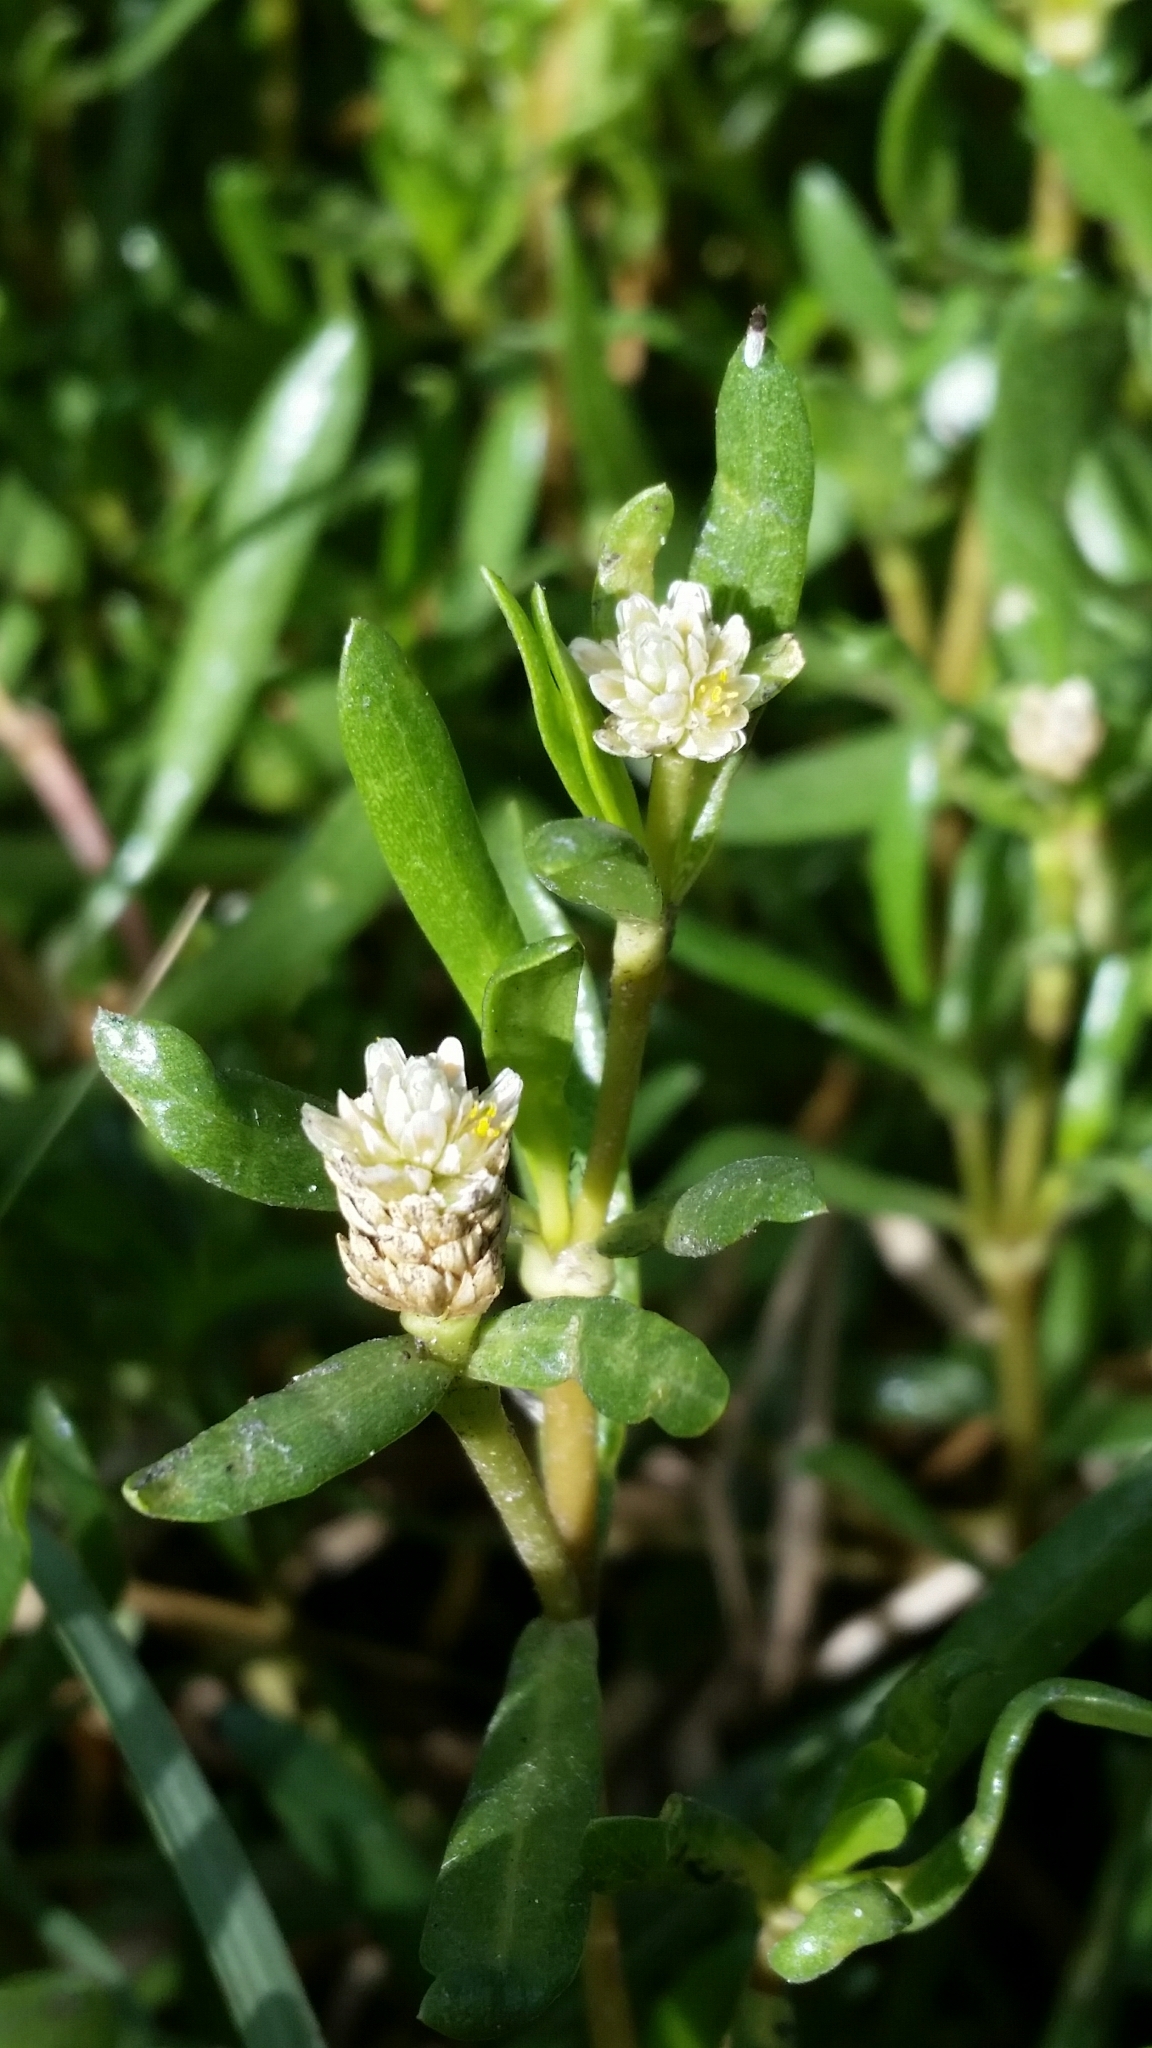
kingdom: Plantae
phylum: Tracheophyta
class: Magnoliopsida
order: Caryophyllales
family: Amaranthaceae
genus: Gomphrena
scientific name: Gomphrena vermicularis
